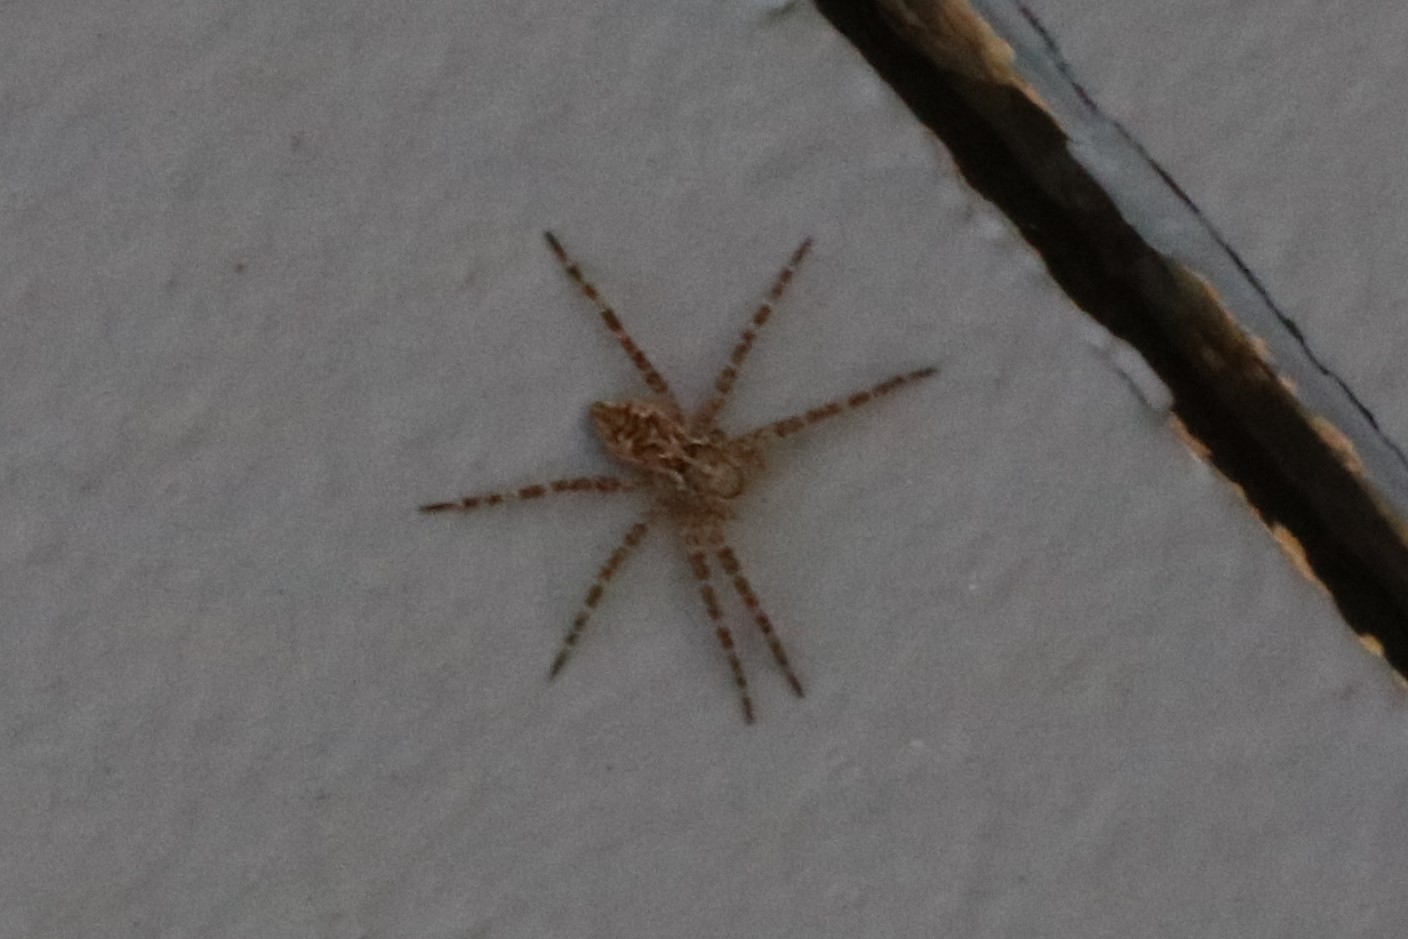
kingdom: Animalia
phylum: Arthropoda
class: Arachnida
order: Araneae
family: Pisauridae
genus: Dolomedes
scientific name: Dolomedes scriptus
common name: Striped fishing spider
